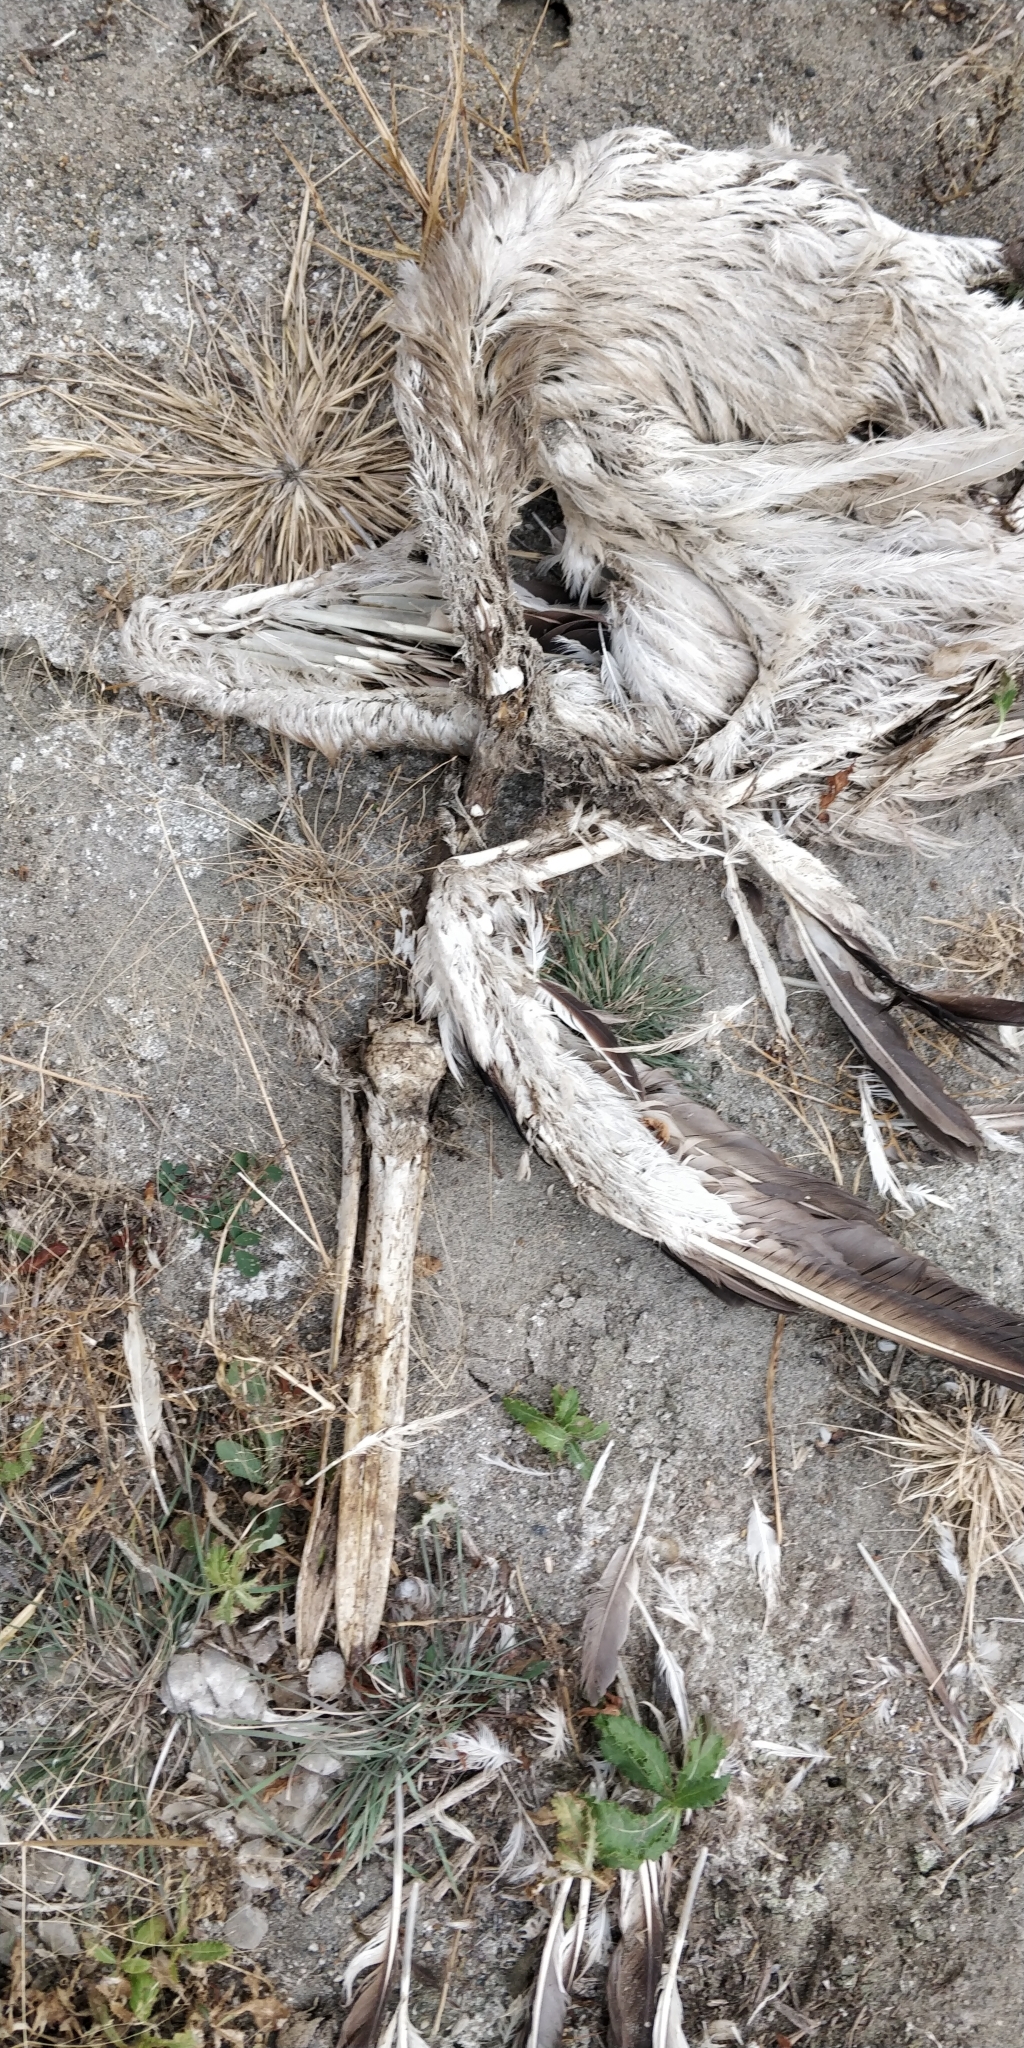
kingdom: Animalia
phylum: Chordata
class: Aves
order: Pelecaniformes
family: Pelecanidae
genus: Pelecanus
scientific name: Pelecanus erythrorhynchos
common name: American white pelican
